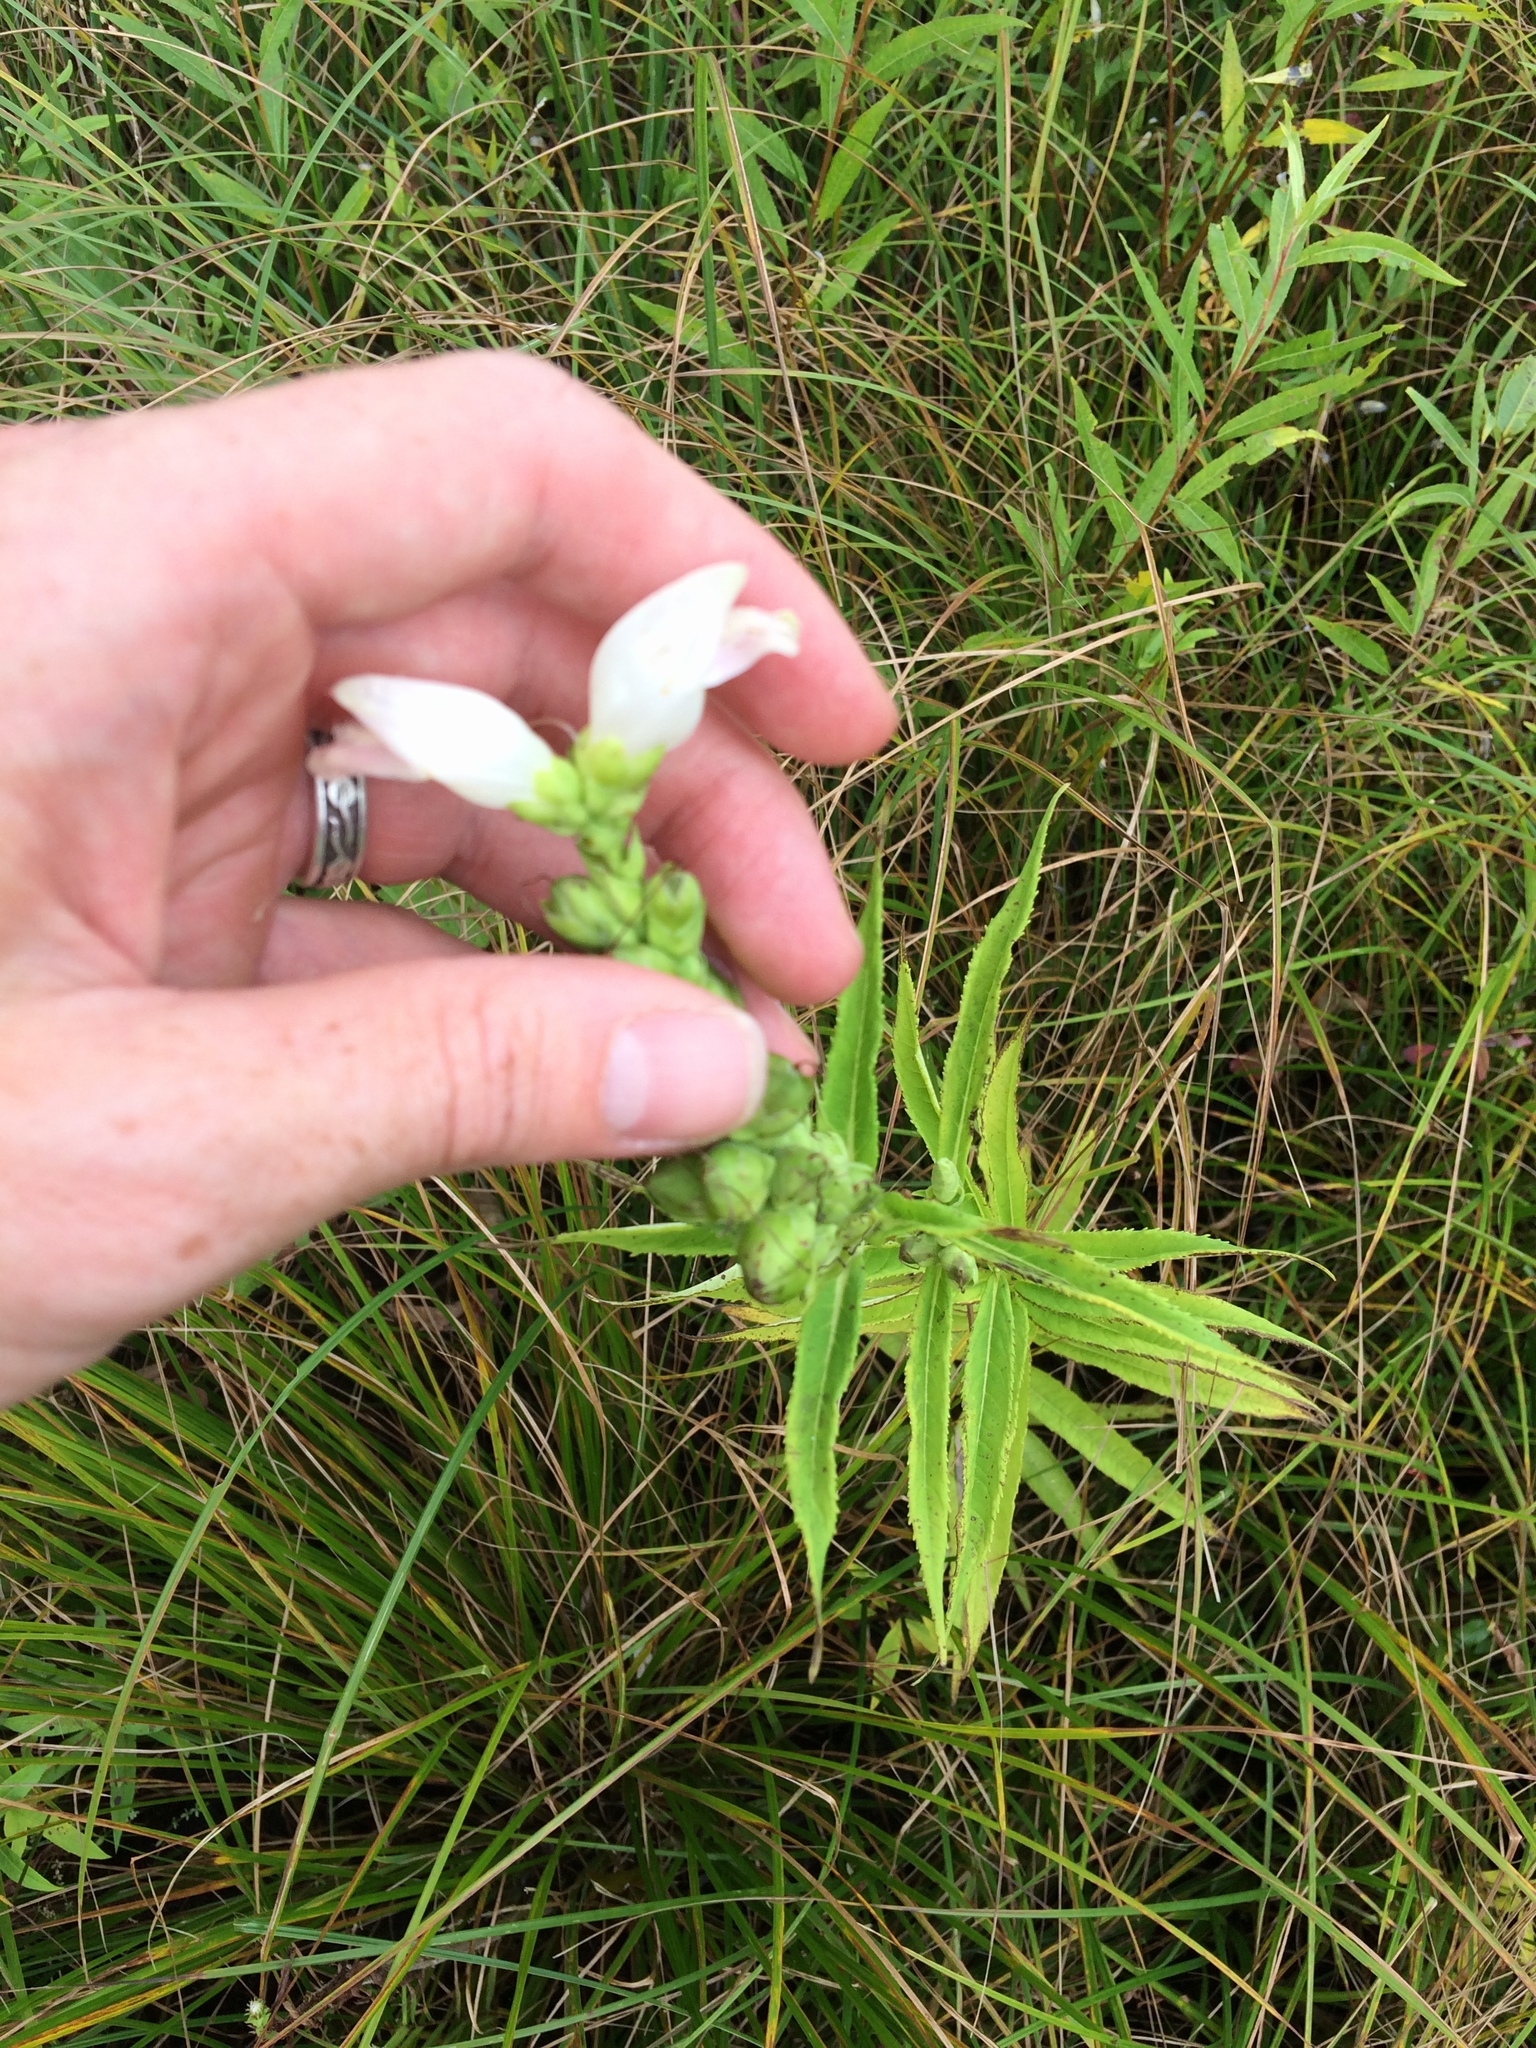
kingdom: Plantae
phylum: Tracheophyta
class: Magnoliopsida
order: Lamiales
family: Plantaginaceae
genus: Chelone
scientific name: Chelone glabra
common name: Snakehead
